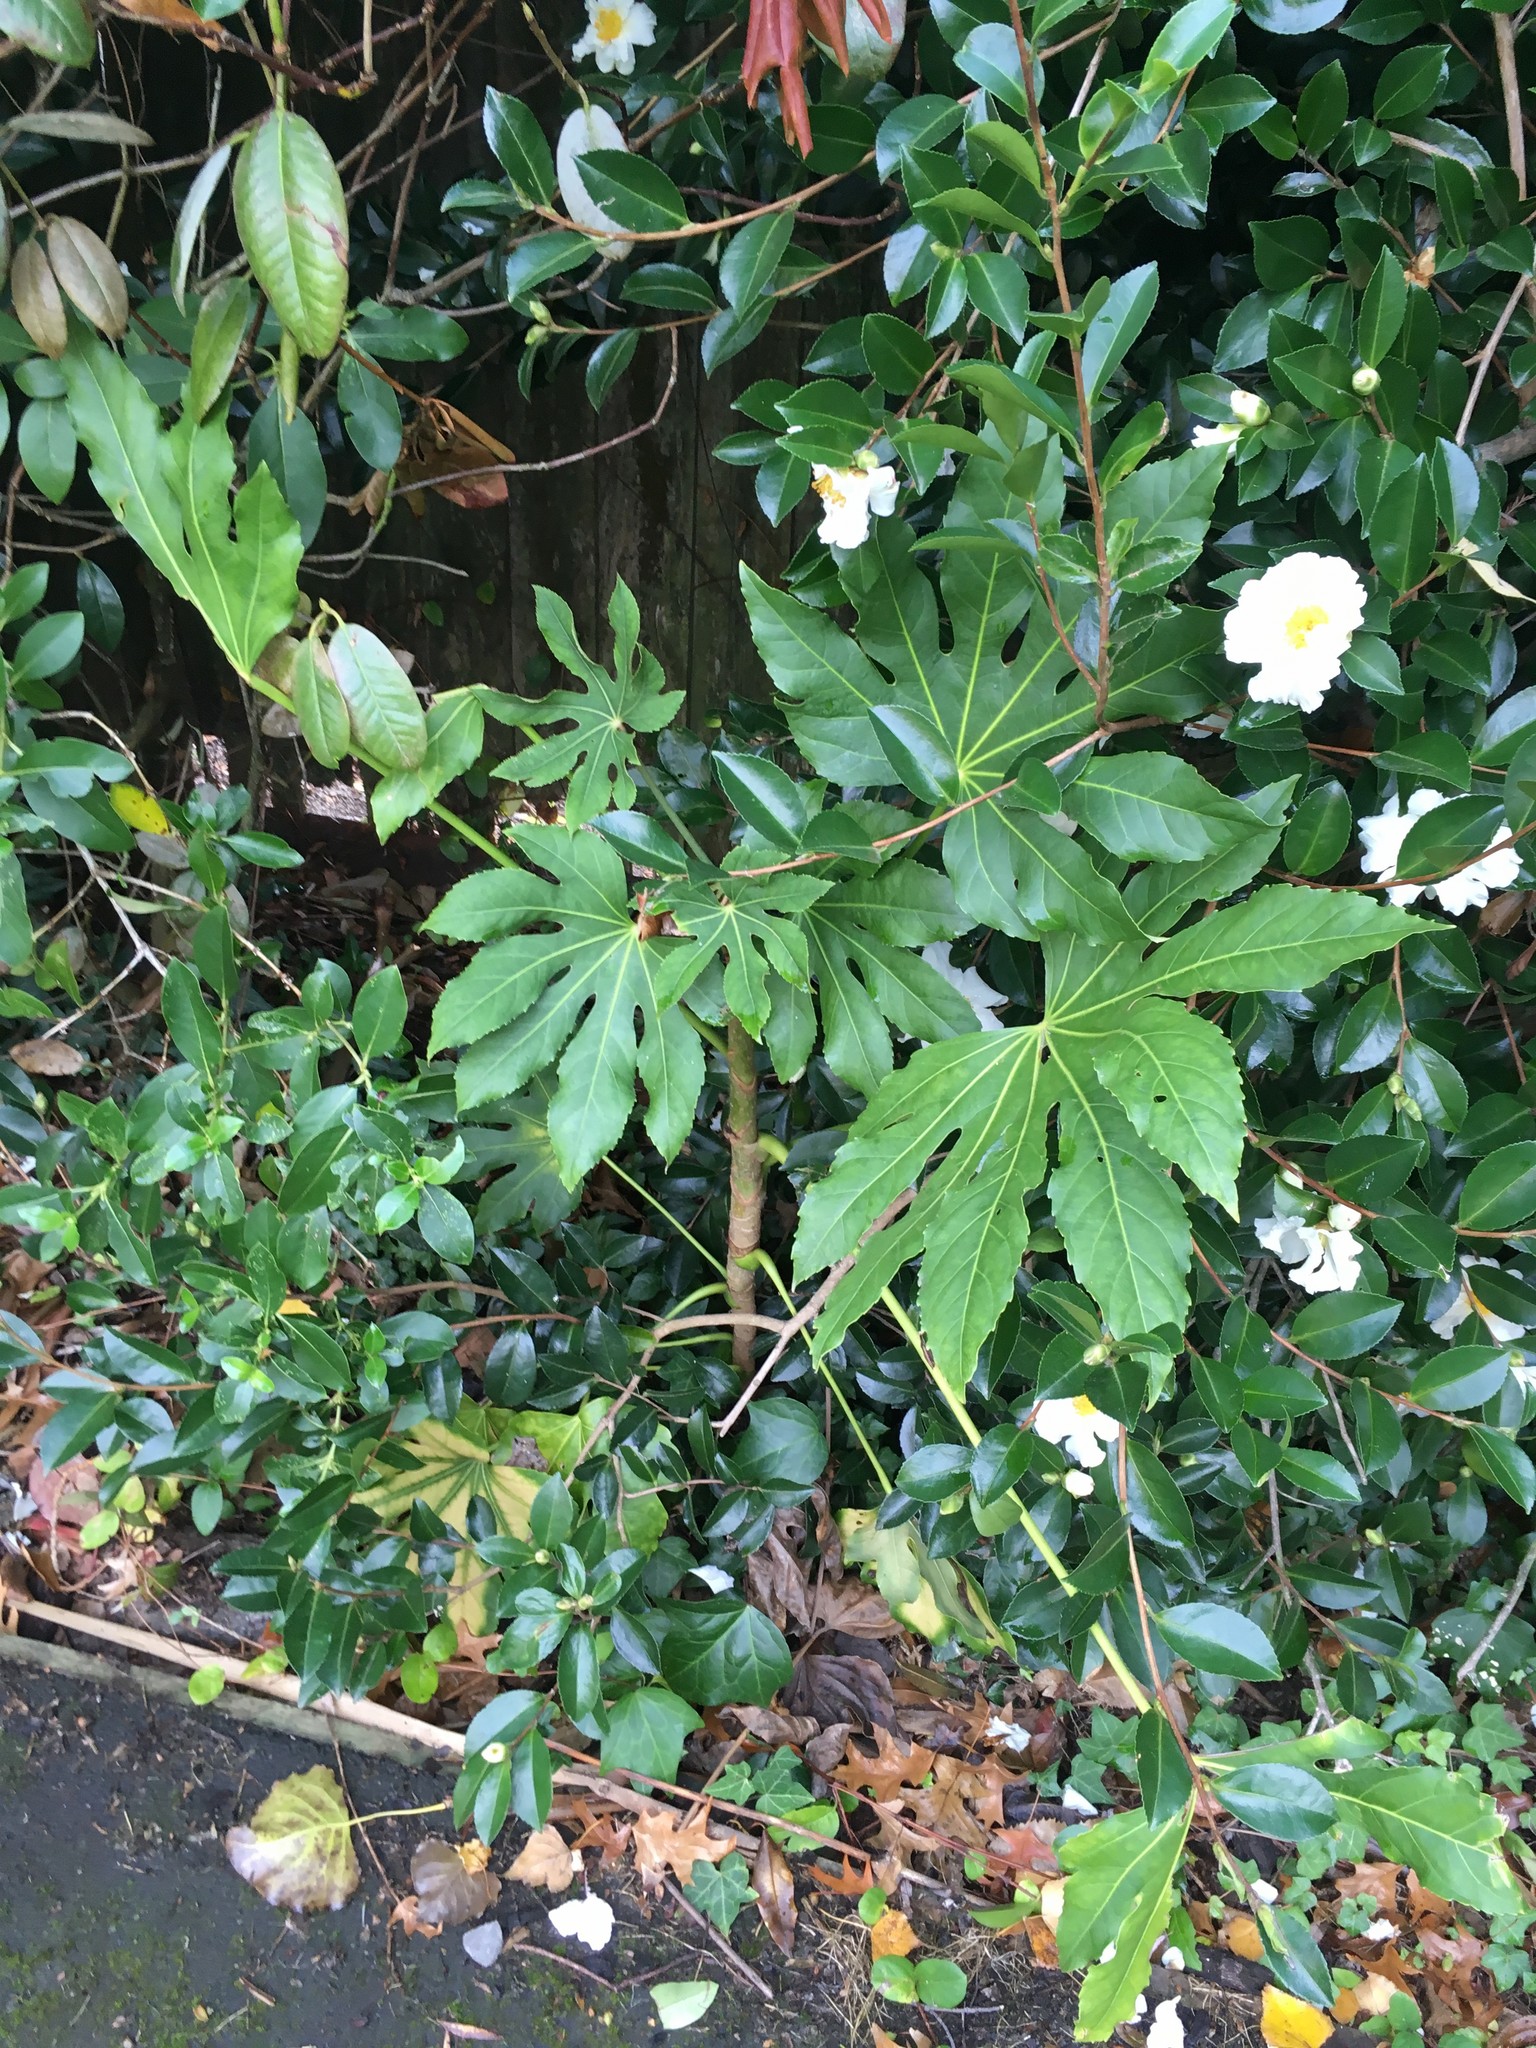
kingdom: Plantae
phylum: Tracheophyta
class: Magnoliopsida
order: Apiales
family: Araliaceae
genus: Fatsia
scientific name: Fatsia japonica
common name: Fatsia
